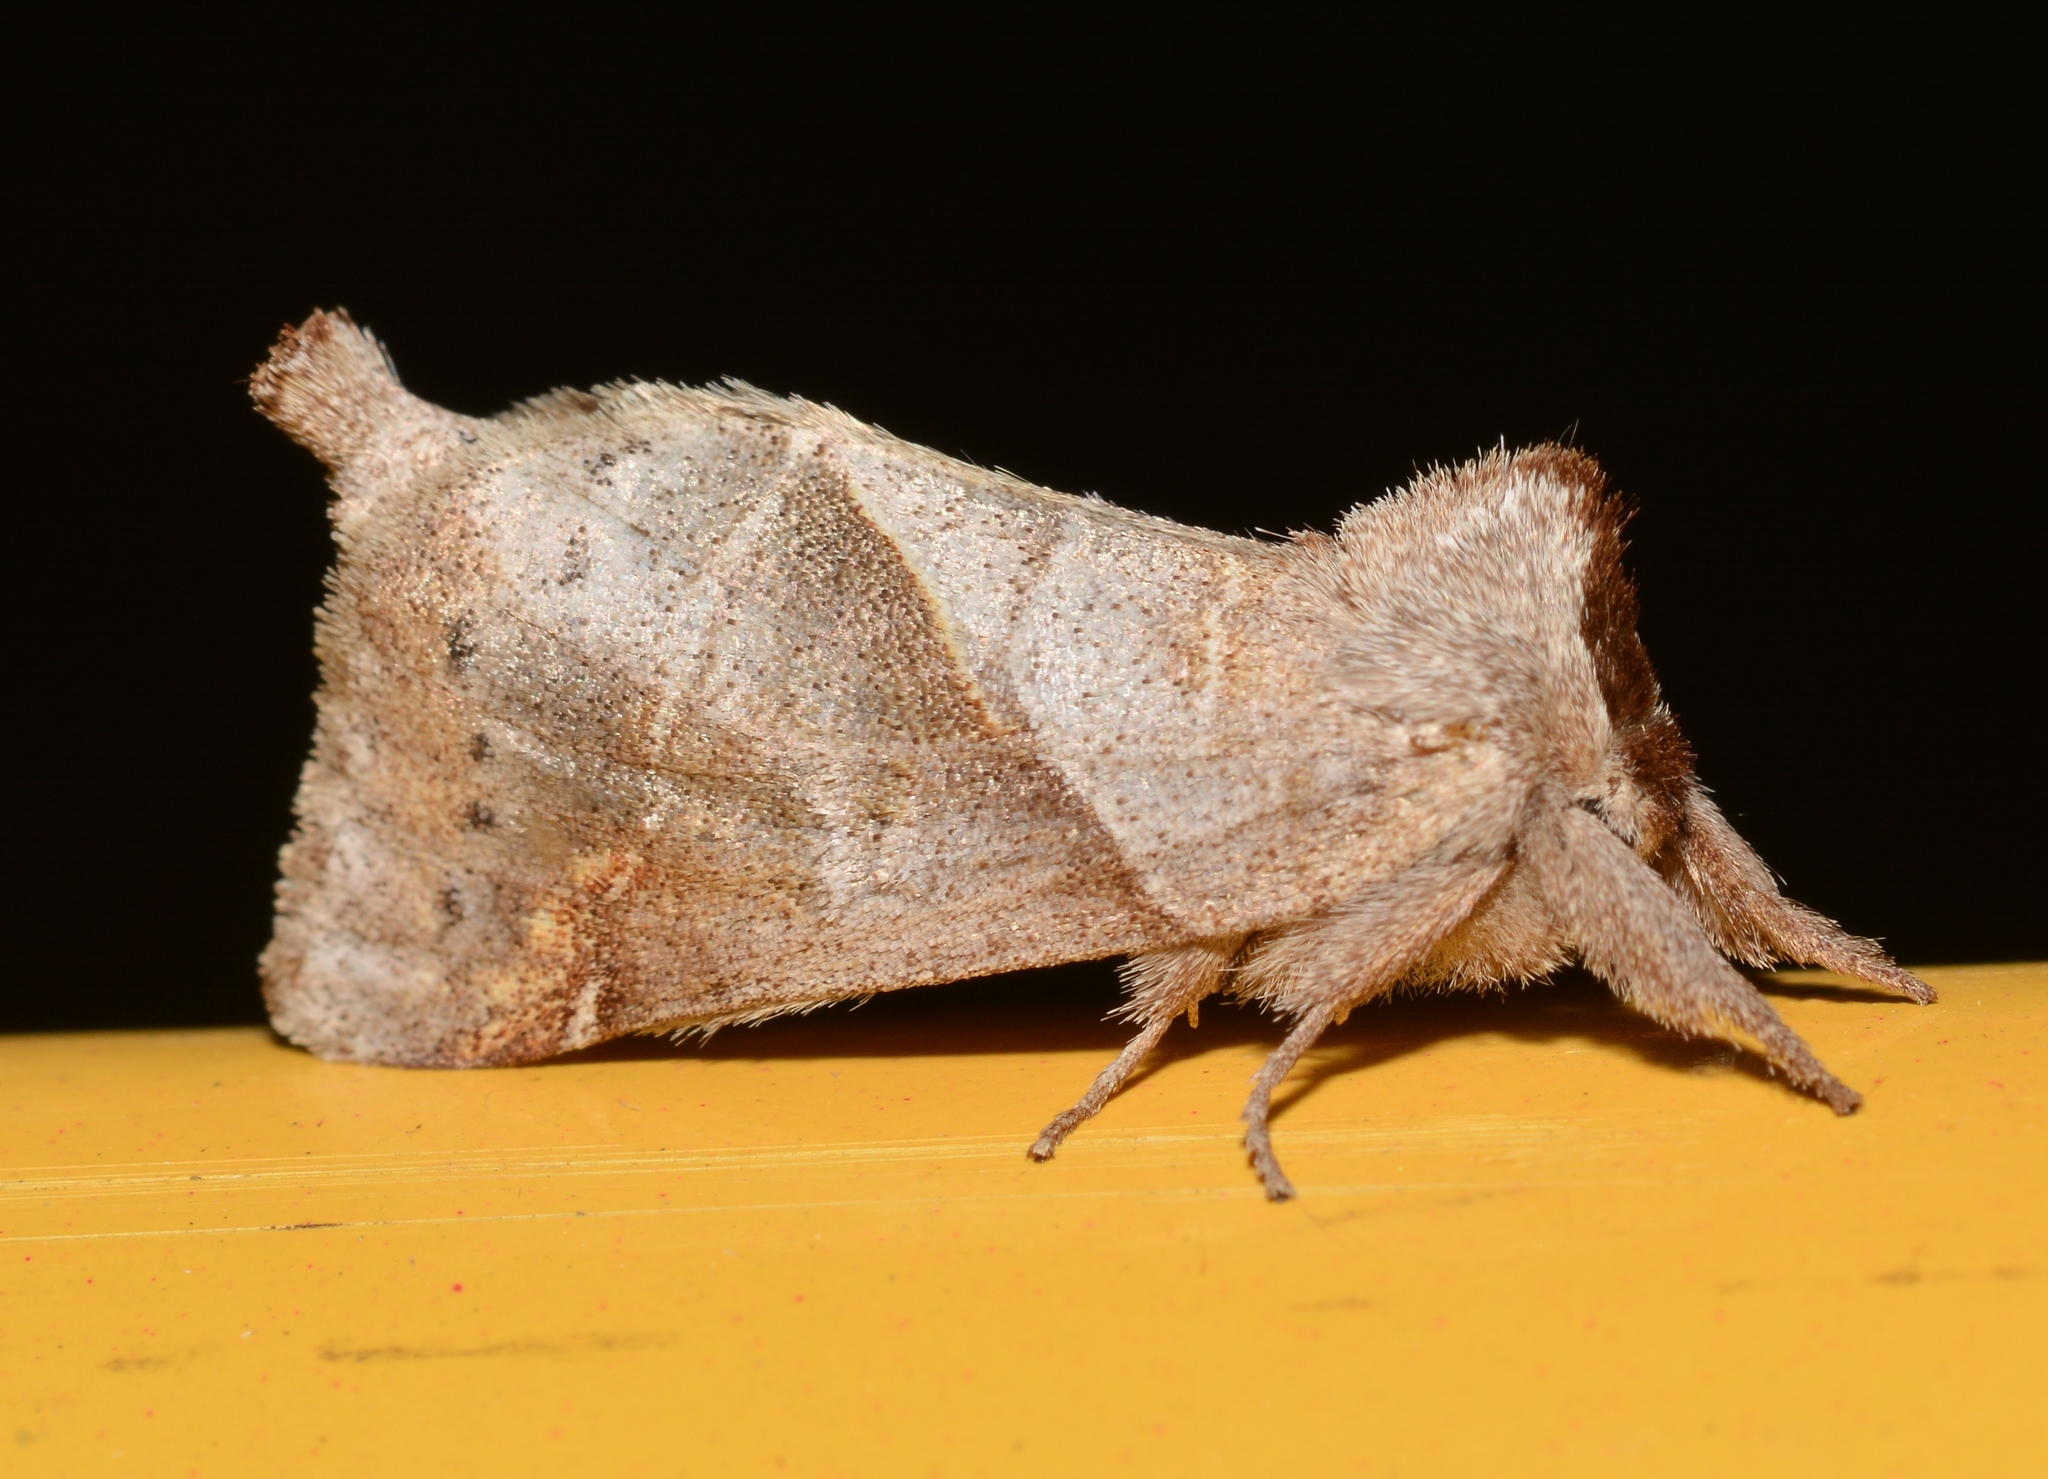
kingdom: Animalia
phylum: Arthropoda
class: Insecta
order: Lepidoptera
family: Notodontidae
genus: Clostera
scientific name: Clostera inclusa
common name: Angle-lined prominent
